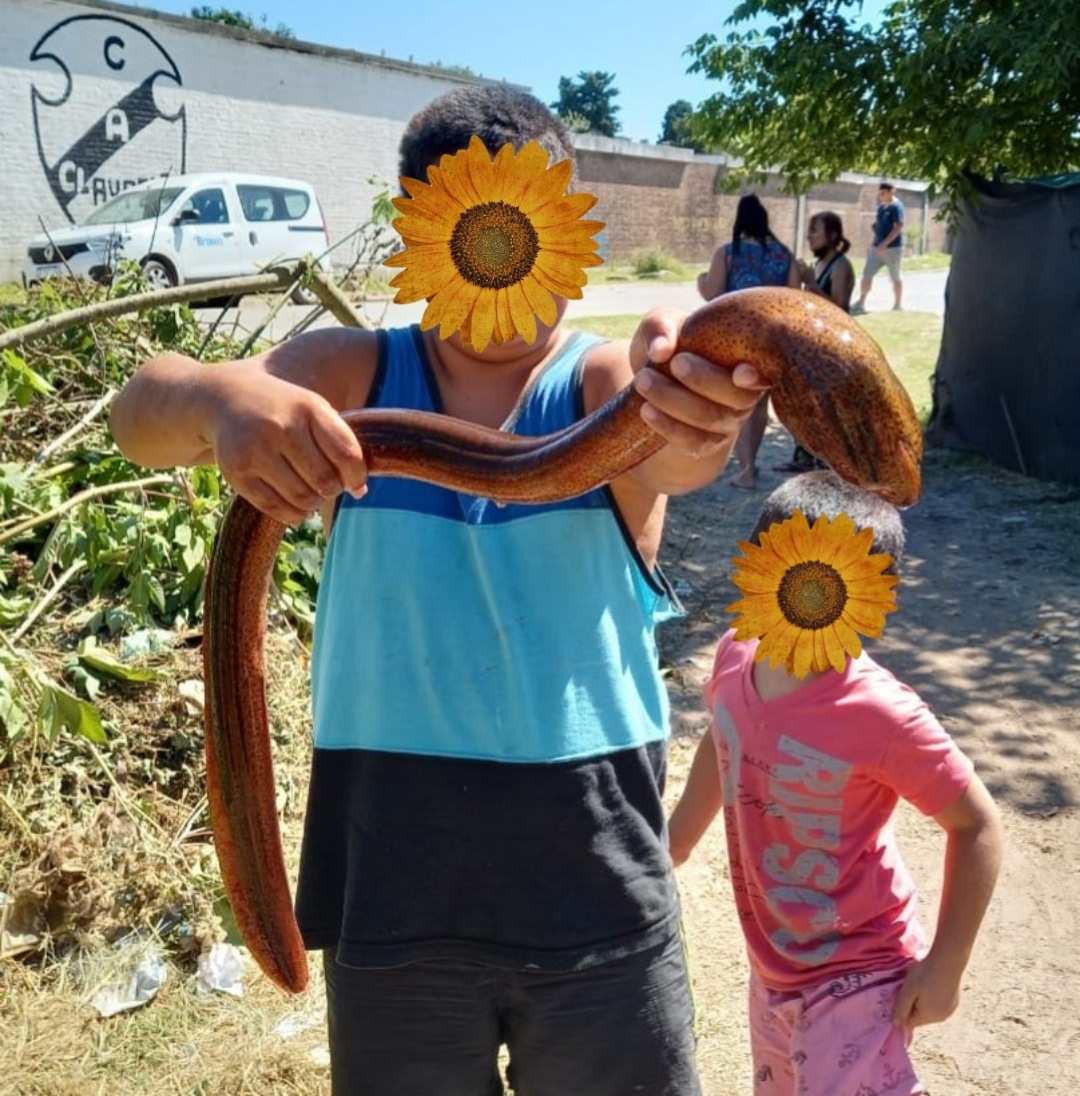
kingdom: Animalia
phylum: Chordata
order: Synbranchiformes
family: Synbranchidae
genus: Synbranchus
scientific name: Synbranchus marmoratus
